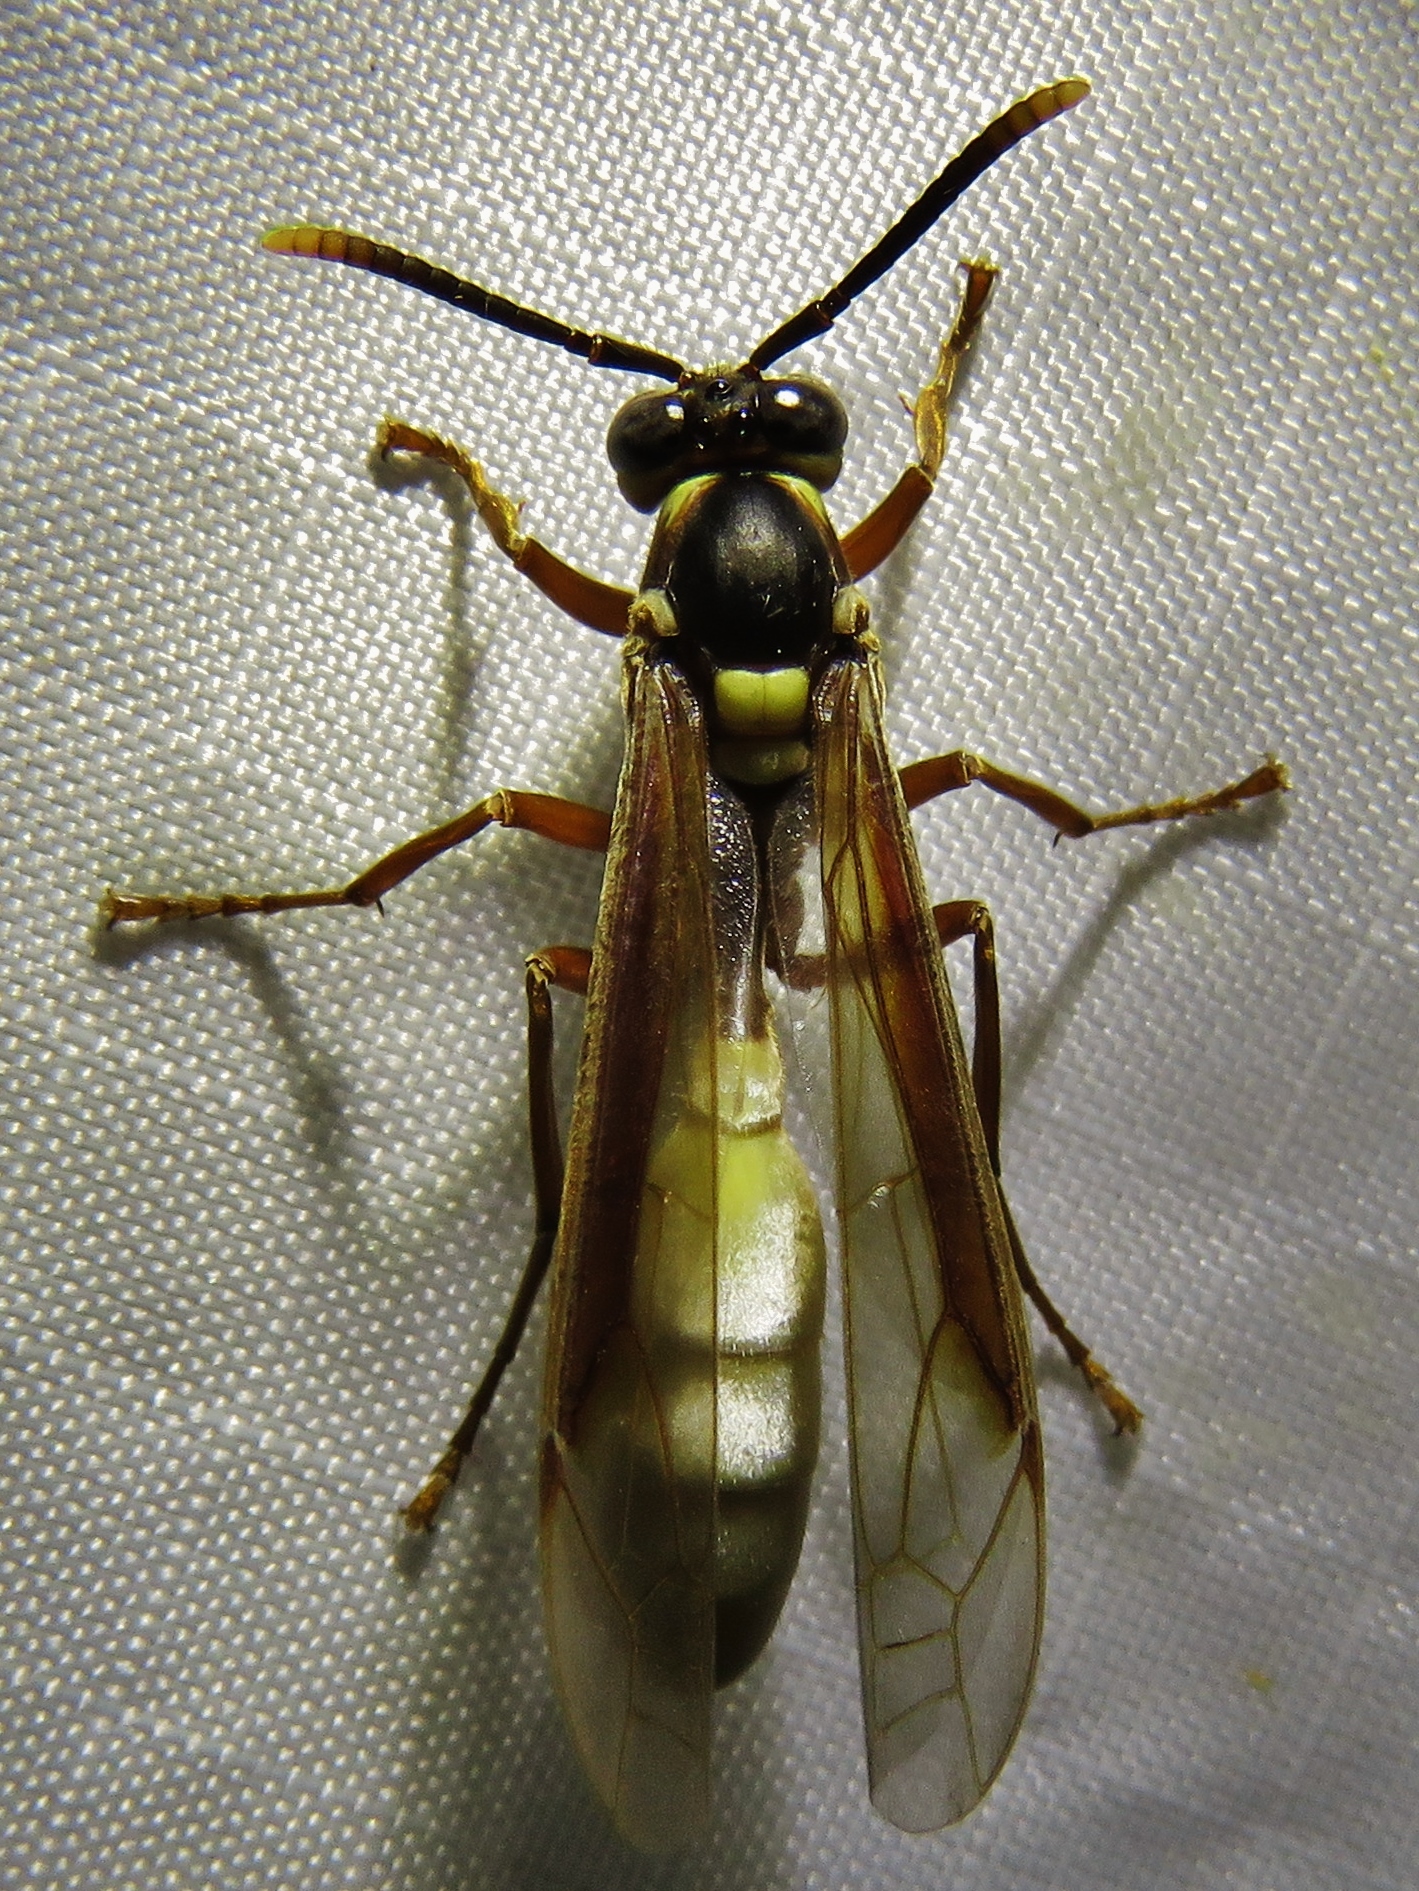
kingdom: Animalia
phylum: Arthropoda
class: Insecta
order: Hymenoptera
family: Vespidae
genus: Apoica
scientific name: Apoica pallens
